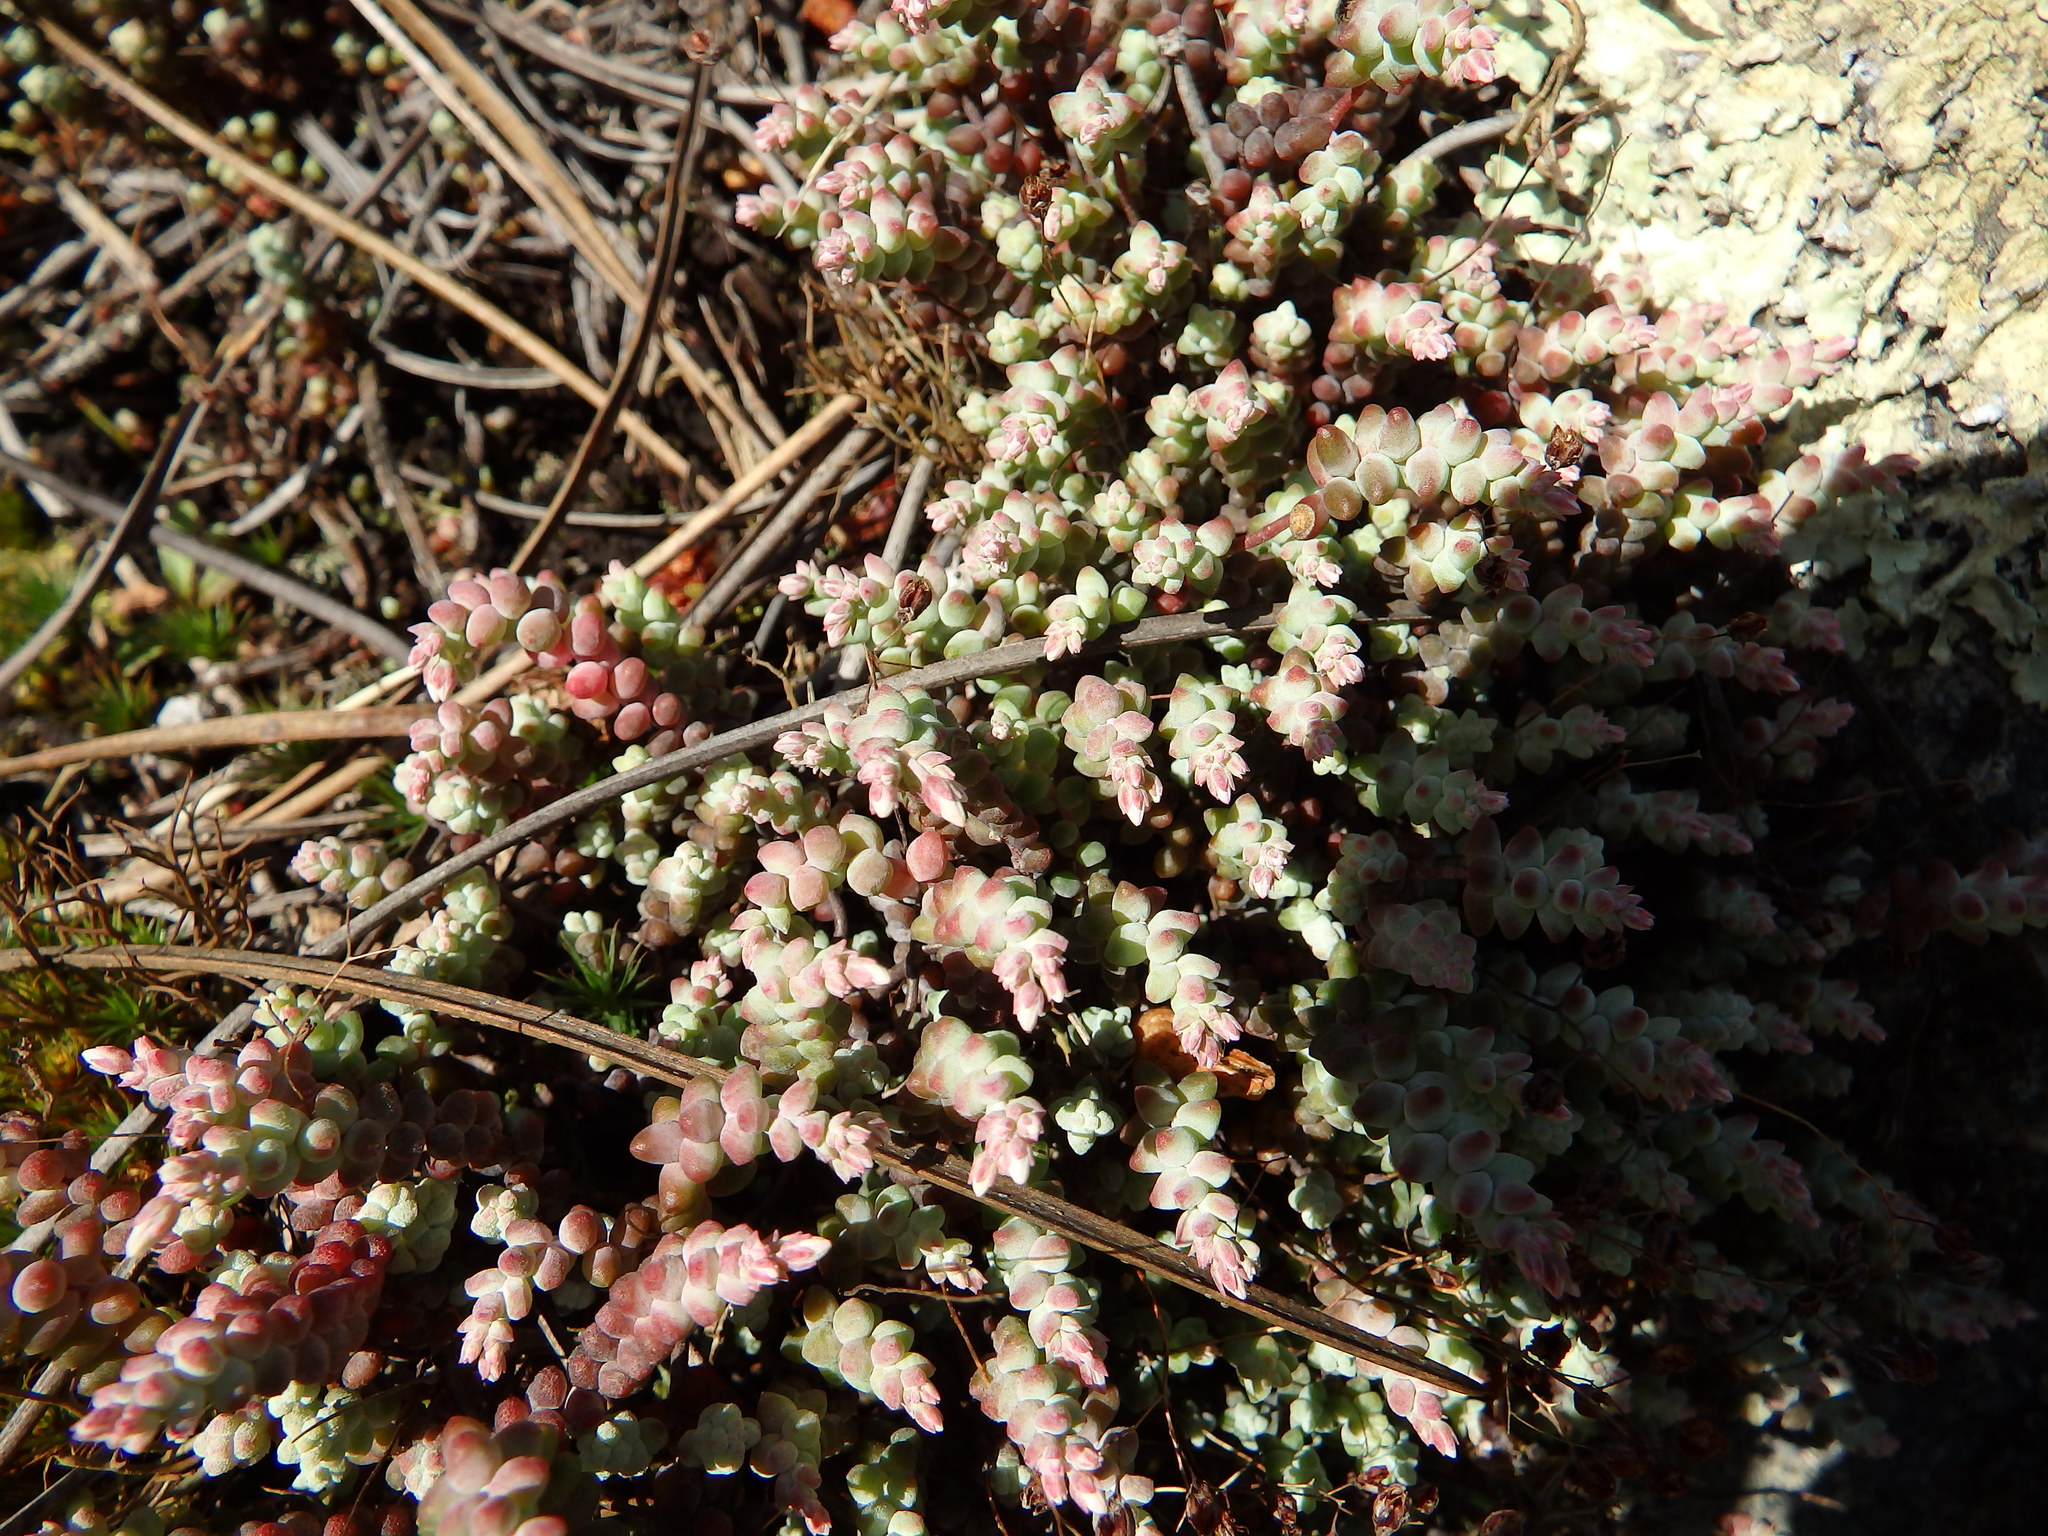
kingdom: Plantae
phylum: Tracheophyta
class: Magnoliopsida
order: Saxifragales
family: Crassulaceae
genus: Sedum
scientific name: Sedum brevifolium
